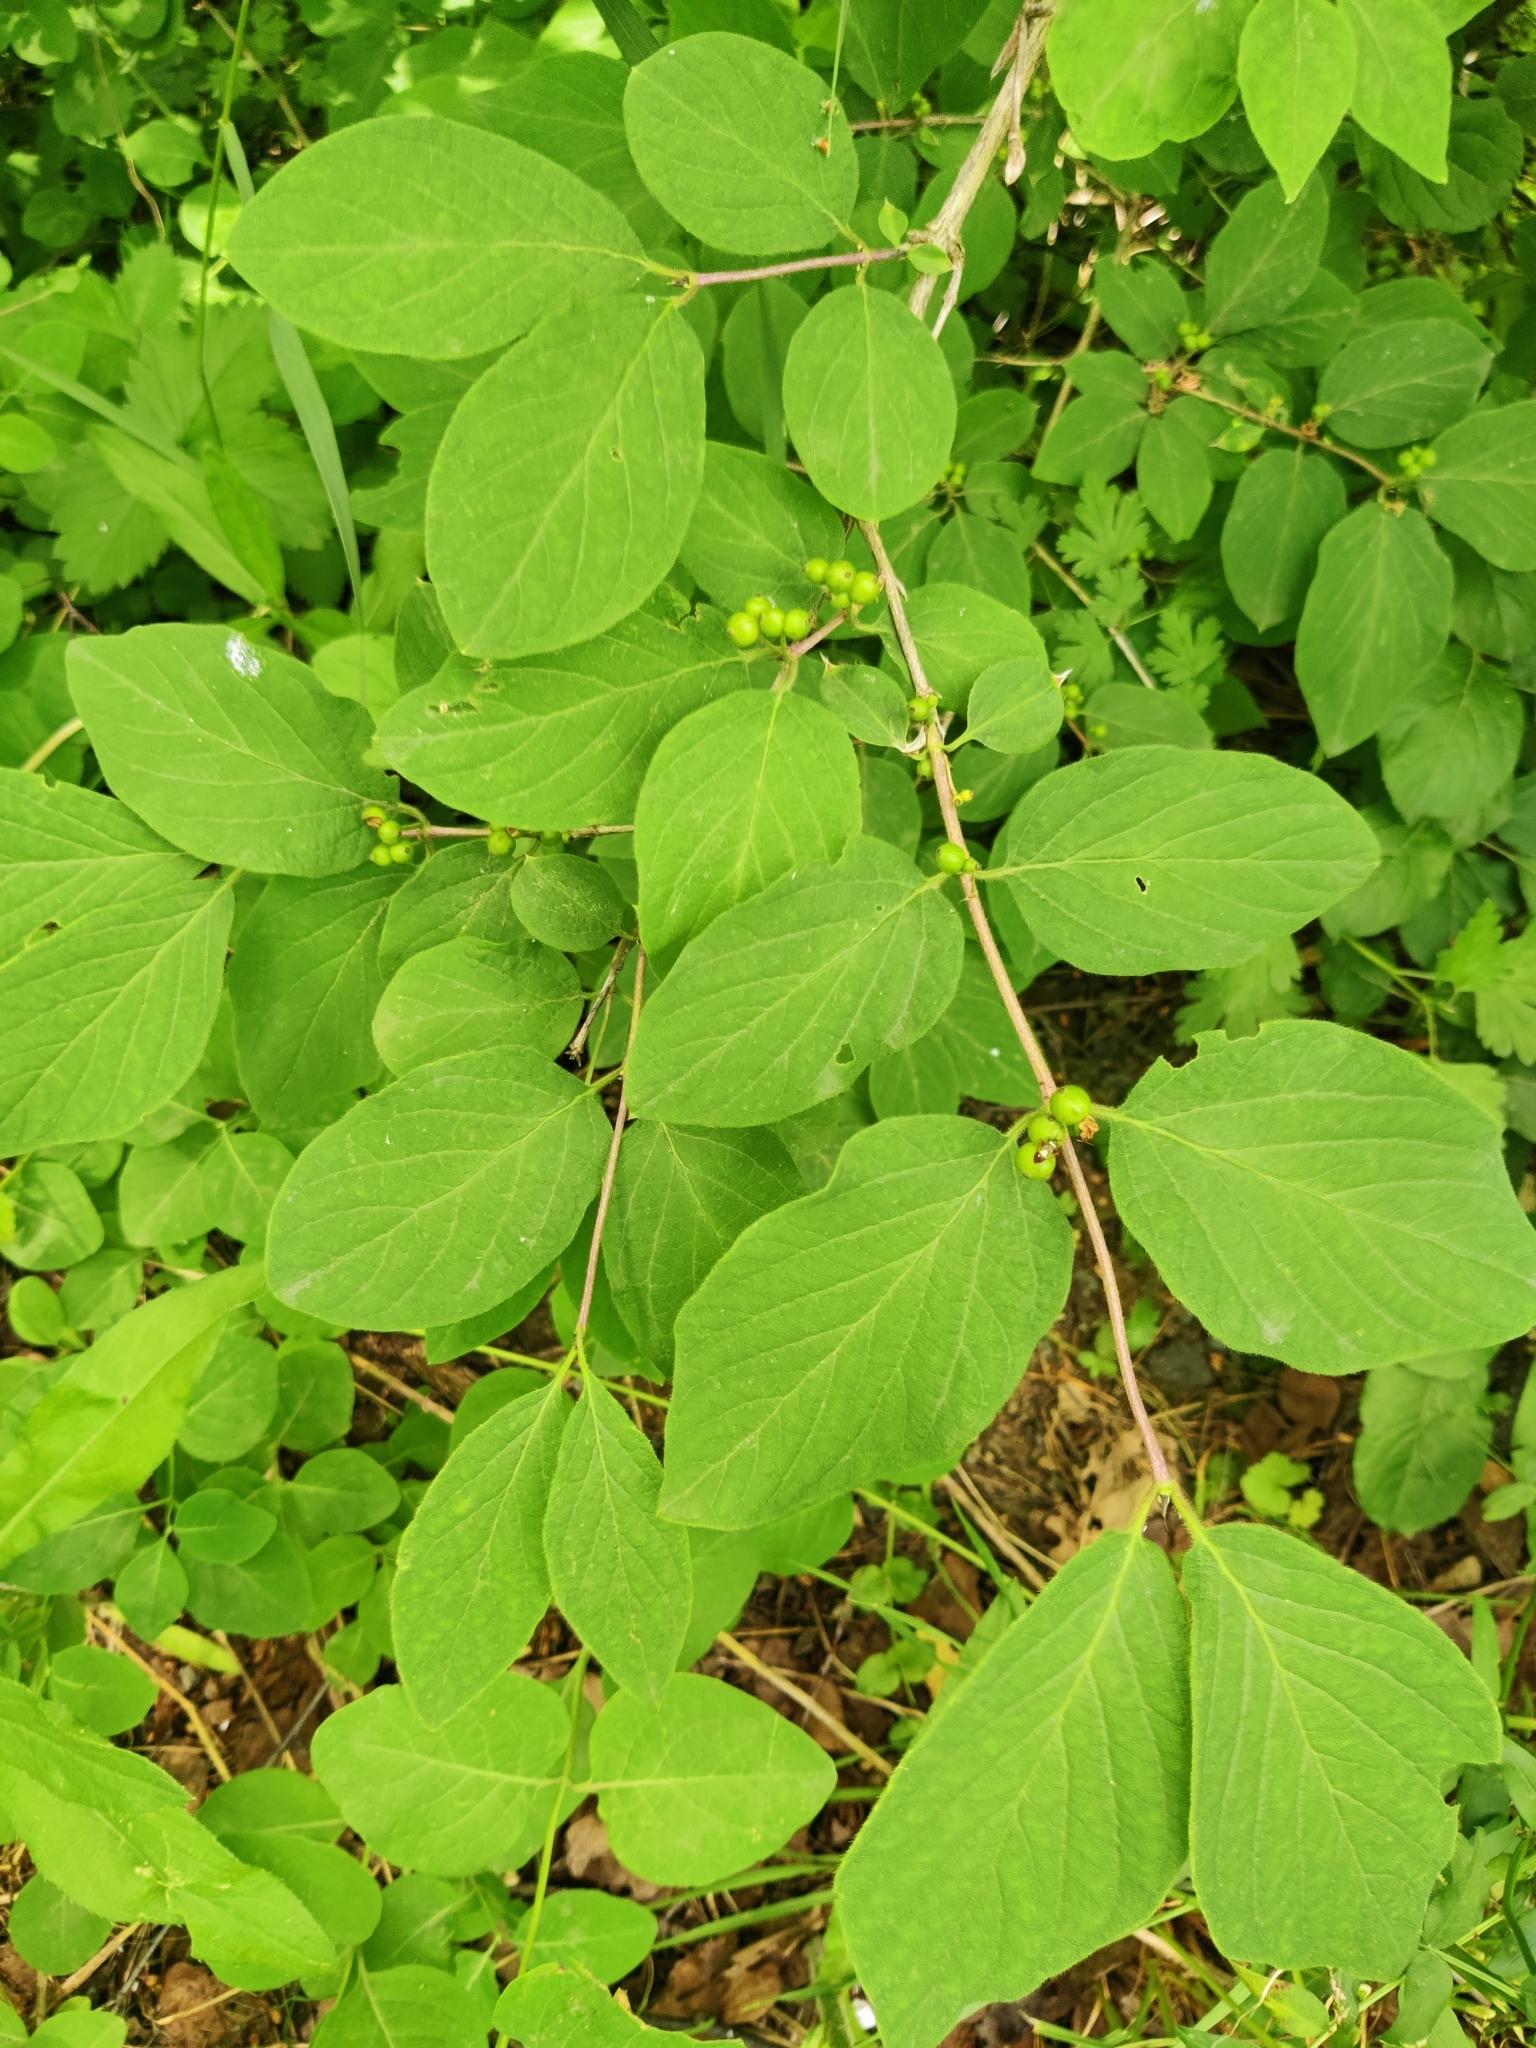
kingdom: Plantae
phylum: Tracheophyta
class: Magnoliopsida
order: Dipsacales
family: Caprifoliaceae
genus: Lonicera
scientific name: Lonicera xylosteum
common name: Fly honeysuckle
